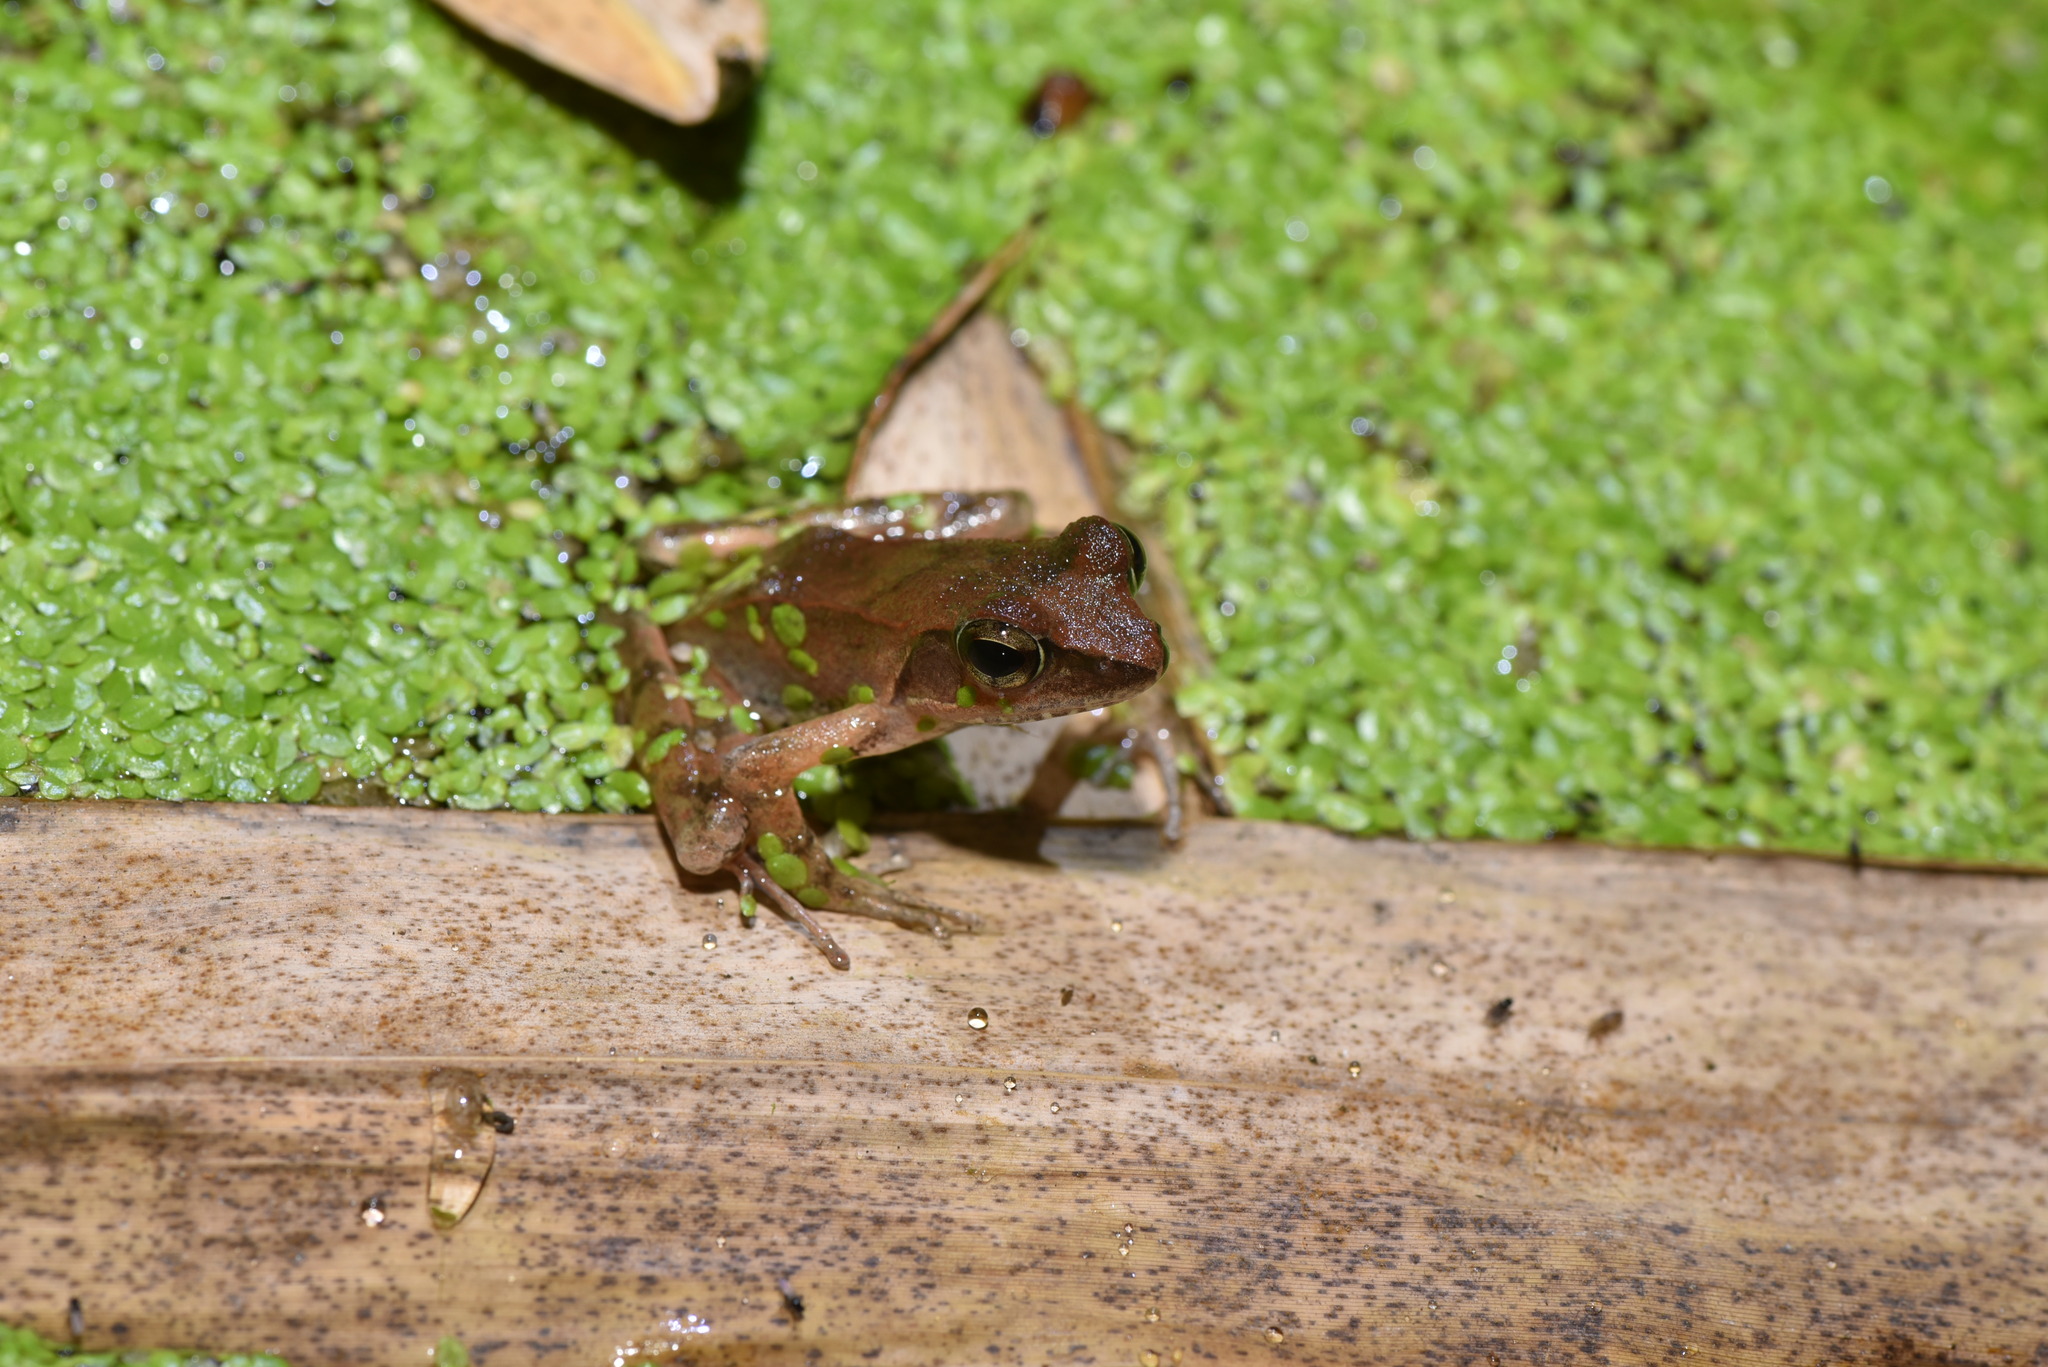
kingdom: Animalia
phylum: Chordata
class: Amphibia
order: Anura
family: Ranidae
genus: Rana
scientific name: Rana sauteri
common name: Kanshirei village frog
